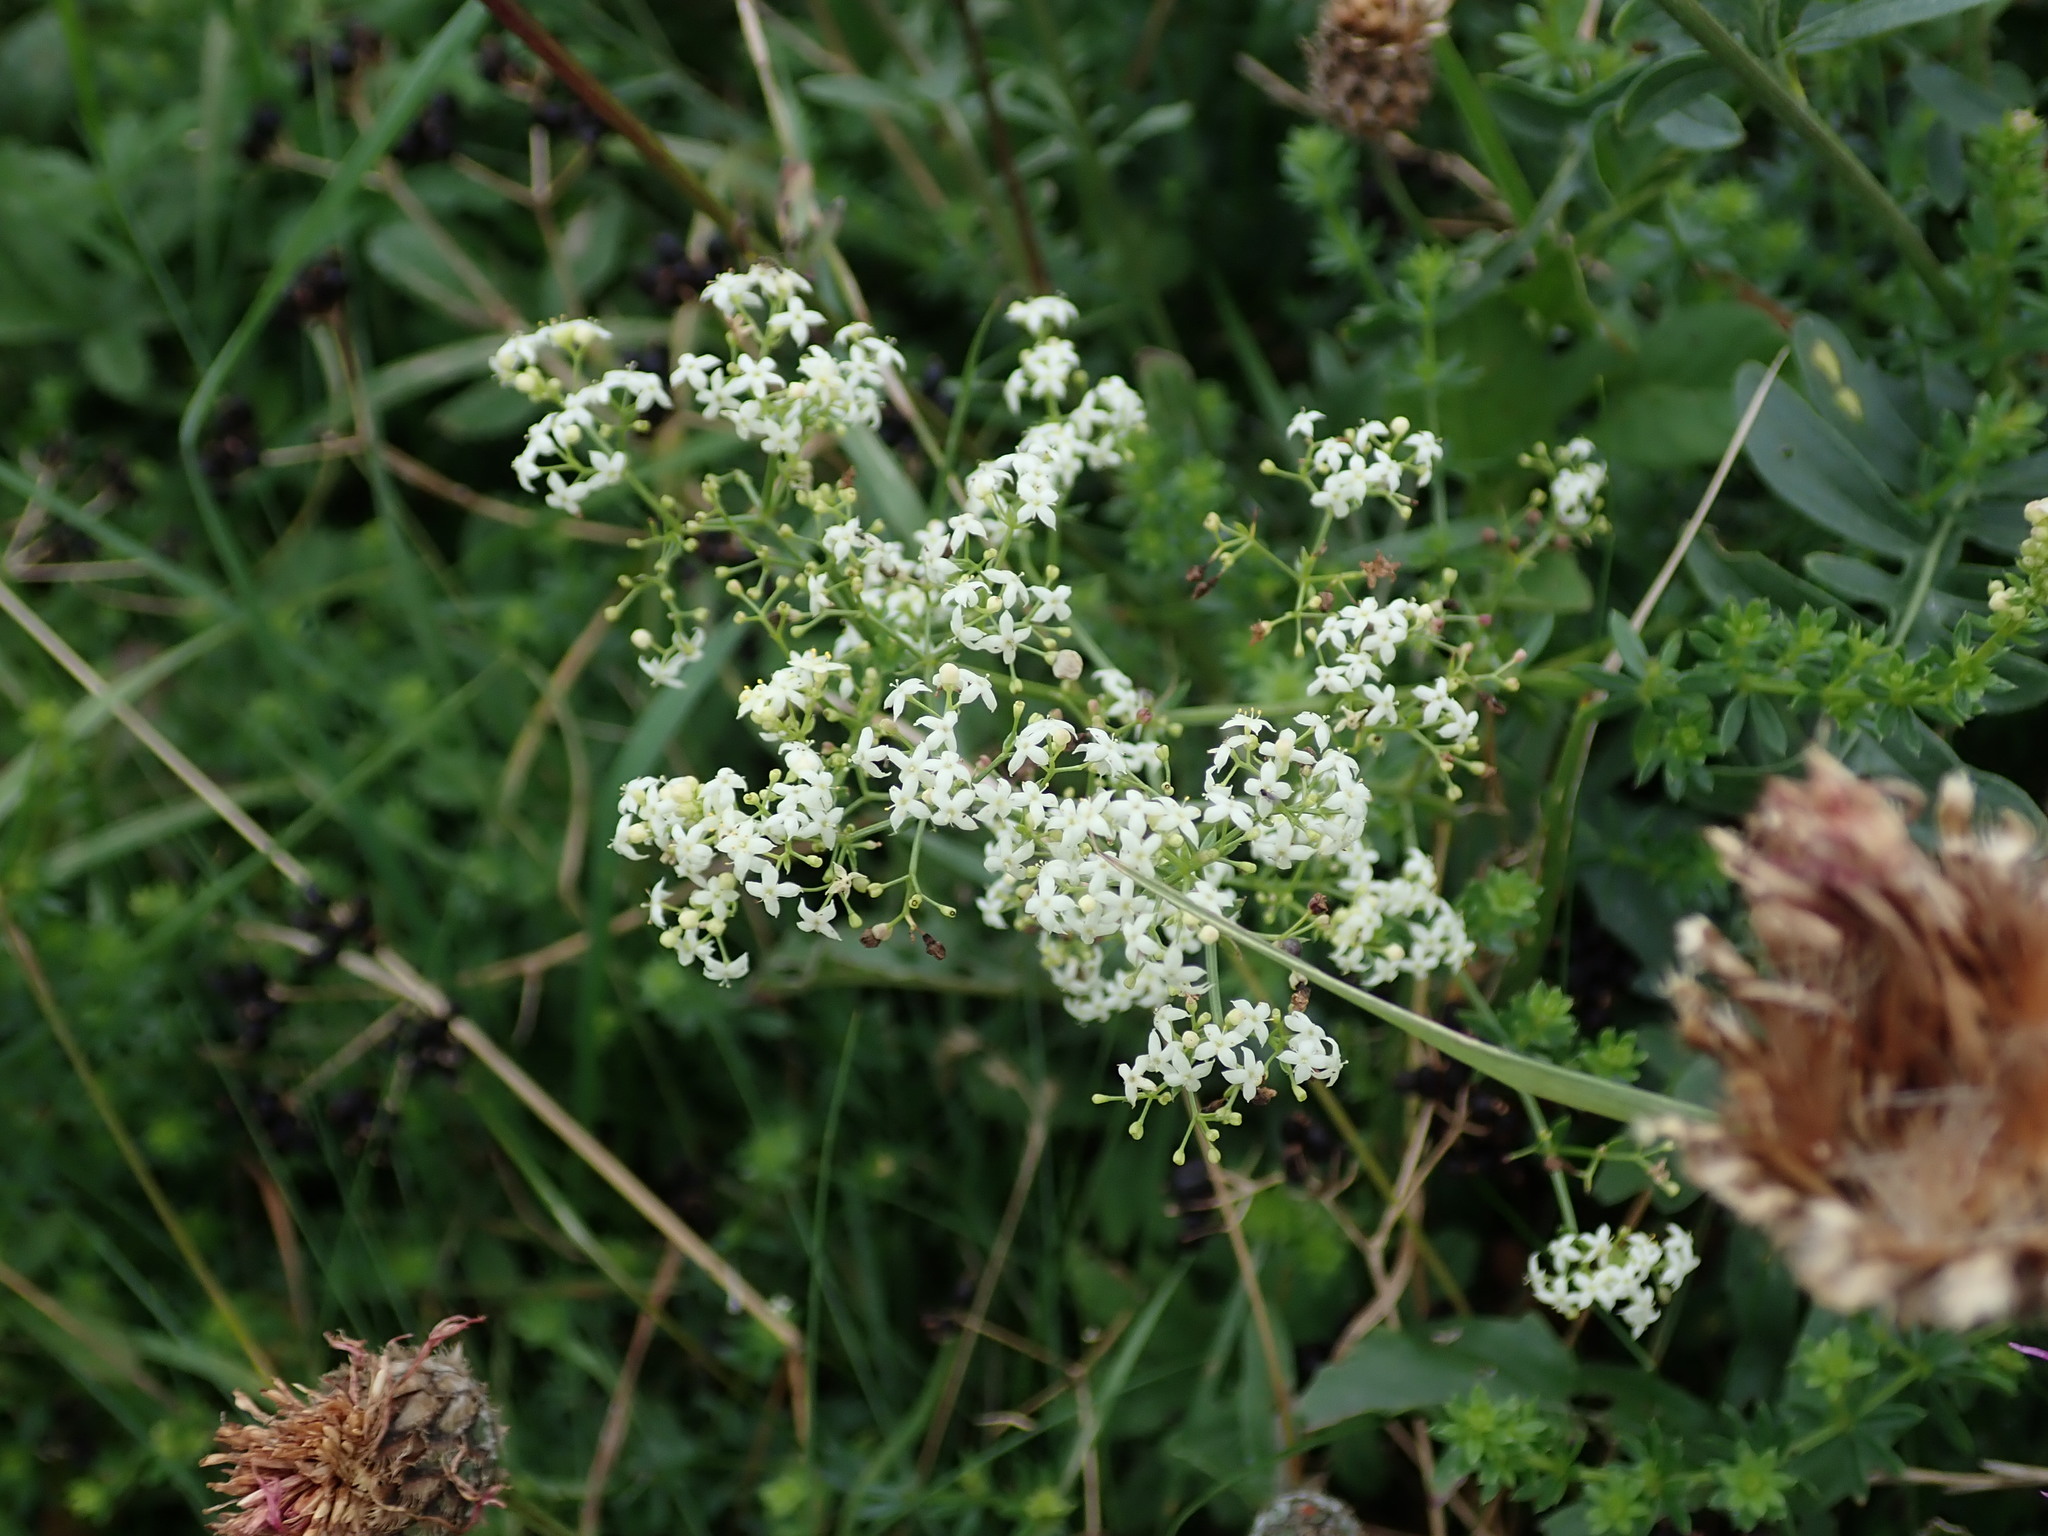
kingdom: Plantae
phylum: Tracheophyta
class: Magnoliopsida
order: Gentianales
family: Rubiaceae
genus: Galium
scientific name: Galium album
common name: White bedstraw
